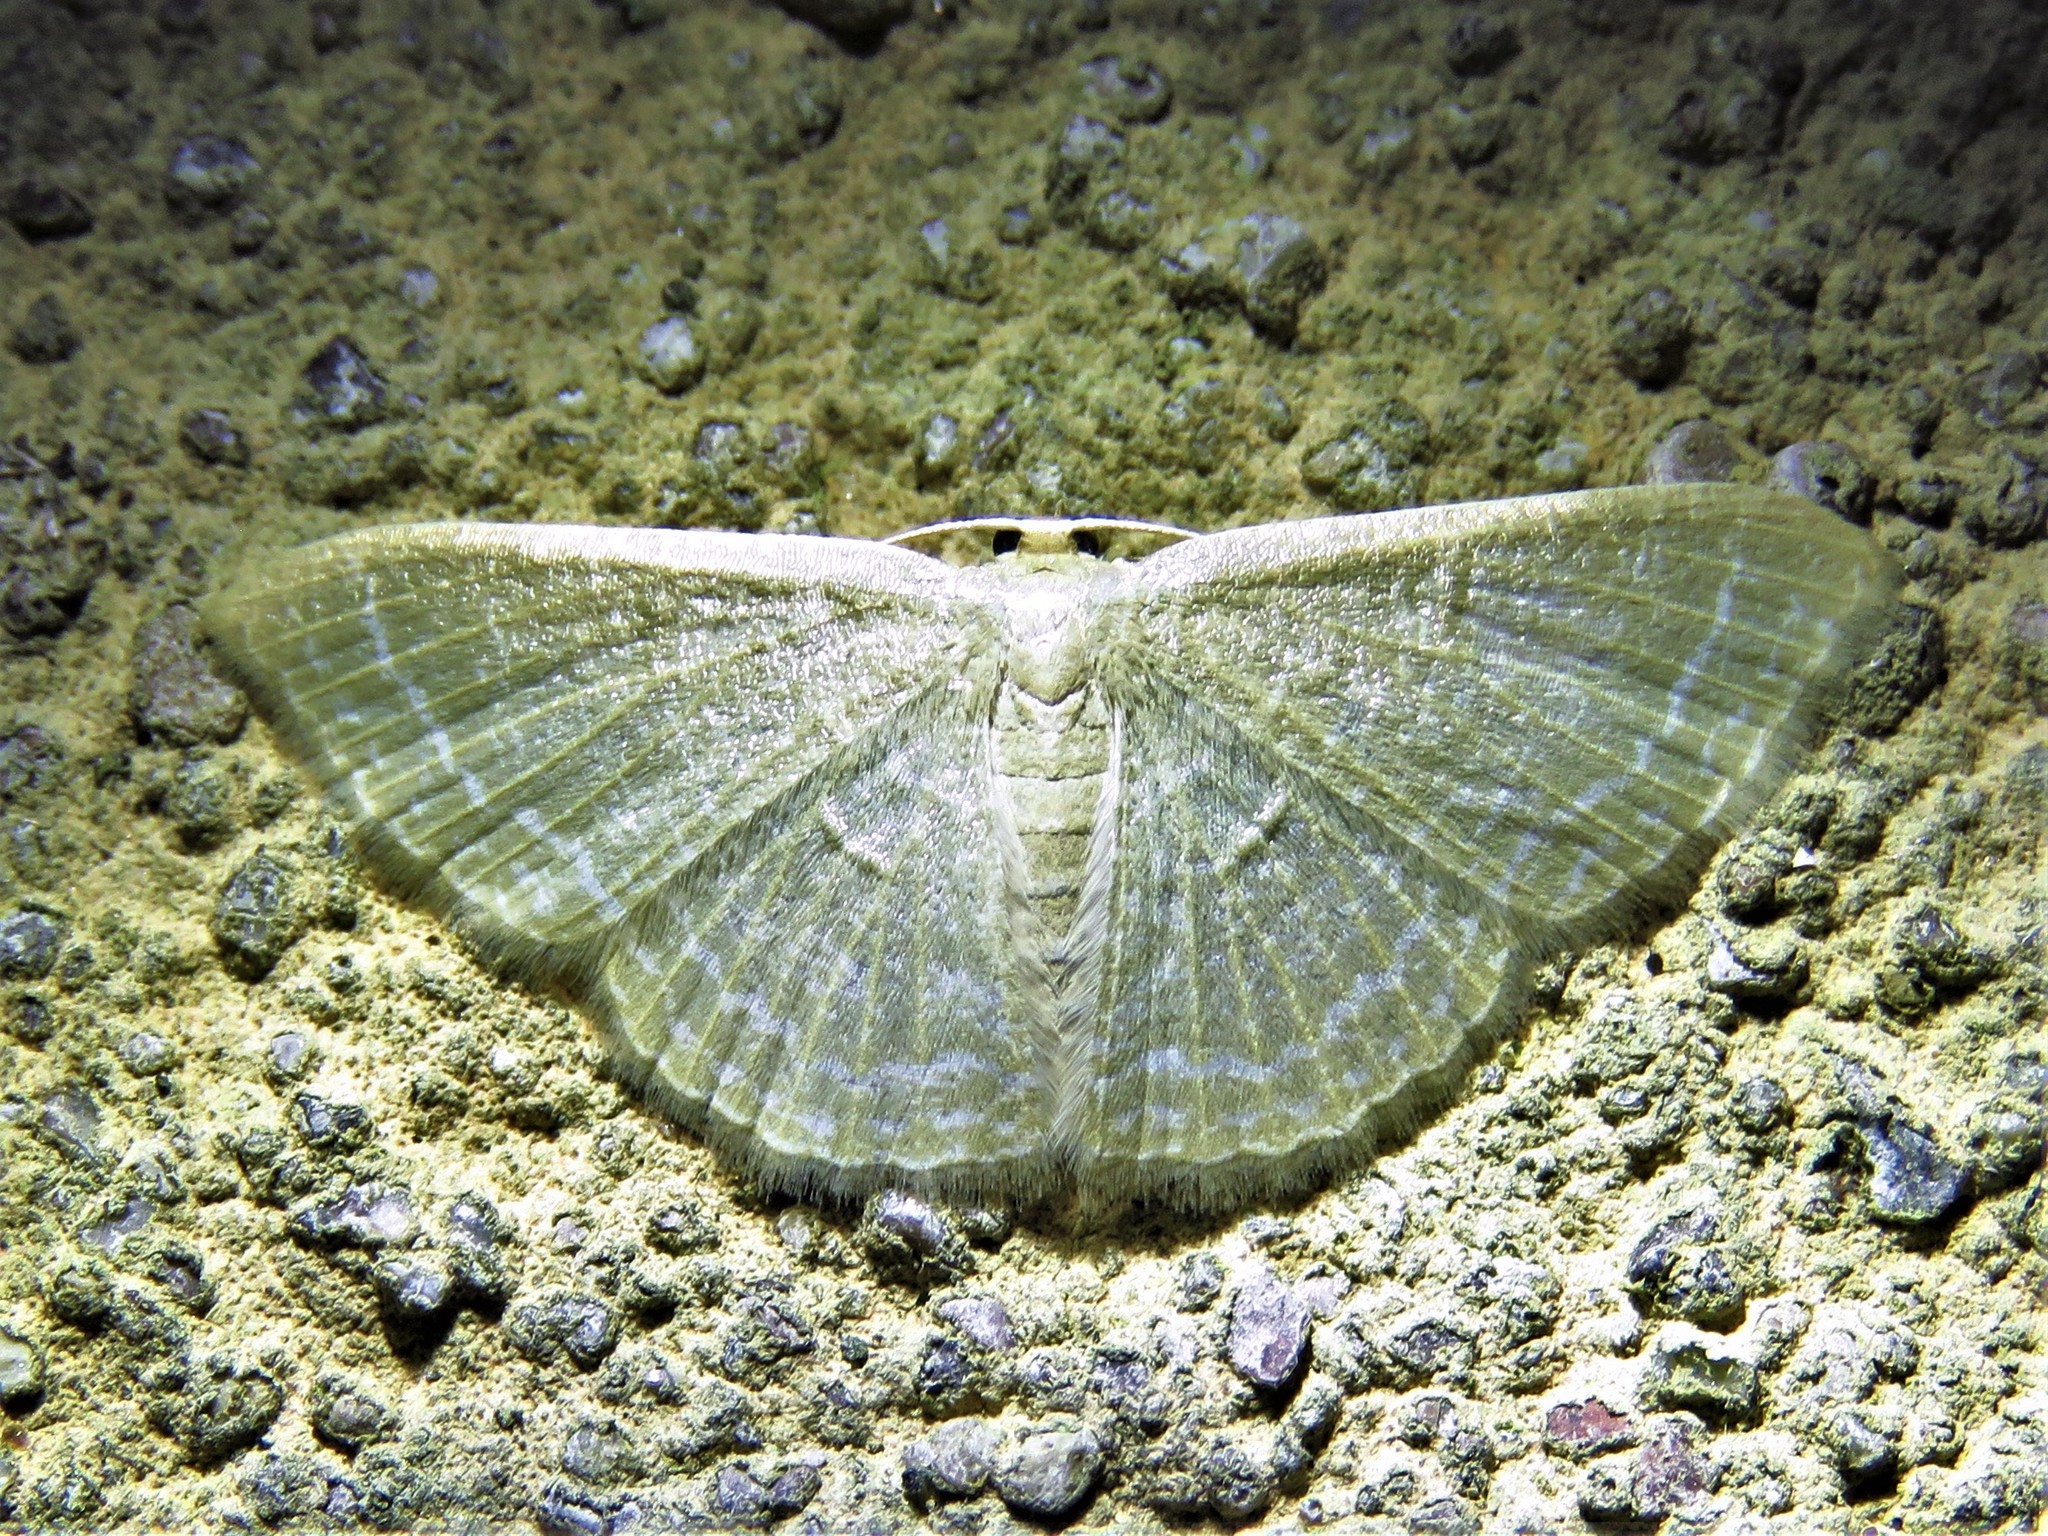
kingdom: Animalia
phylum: Arthropoda
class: Insecta
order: Lepidoptera
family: Geometridae
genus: Pleuroprucha
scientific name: Pleuroprucha insulsaria
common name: Common tan wave
